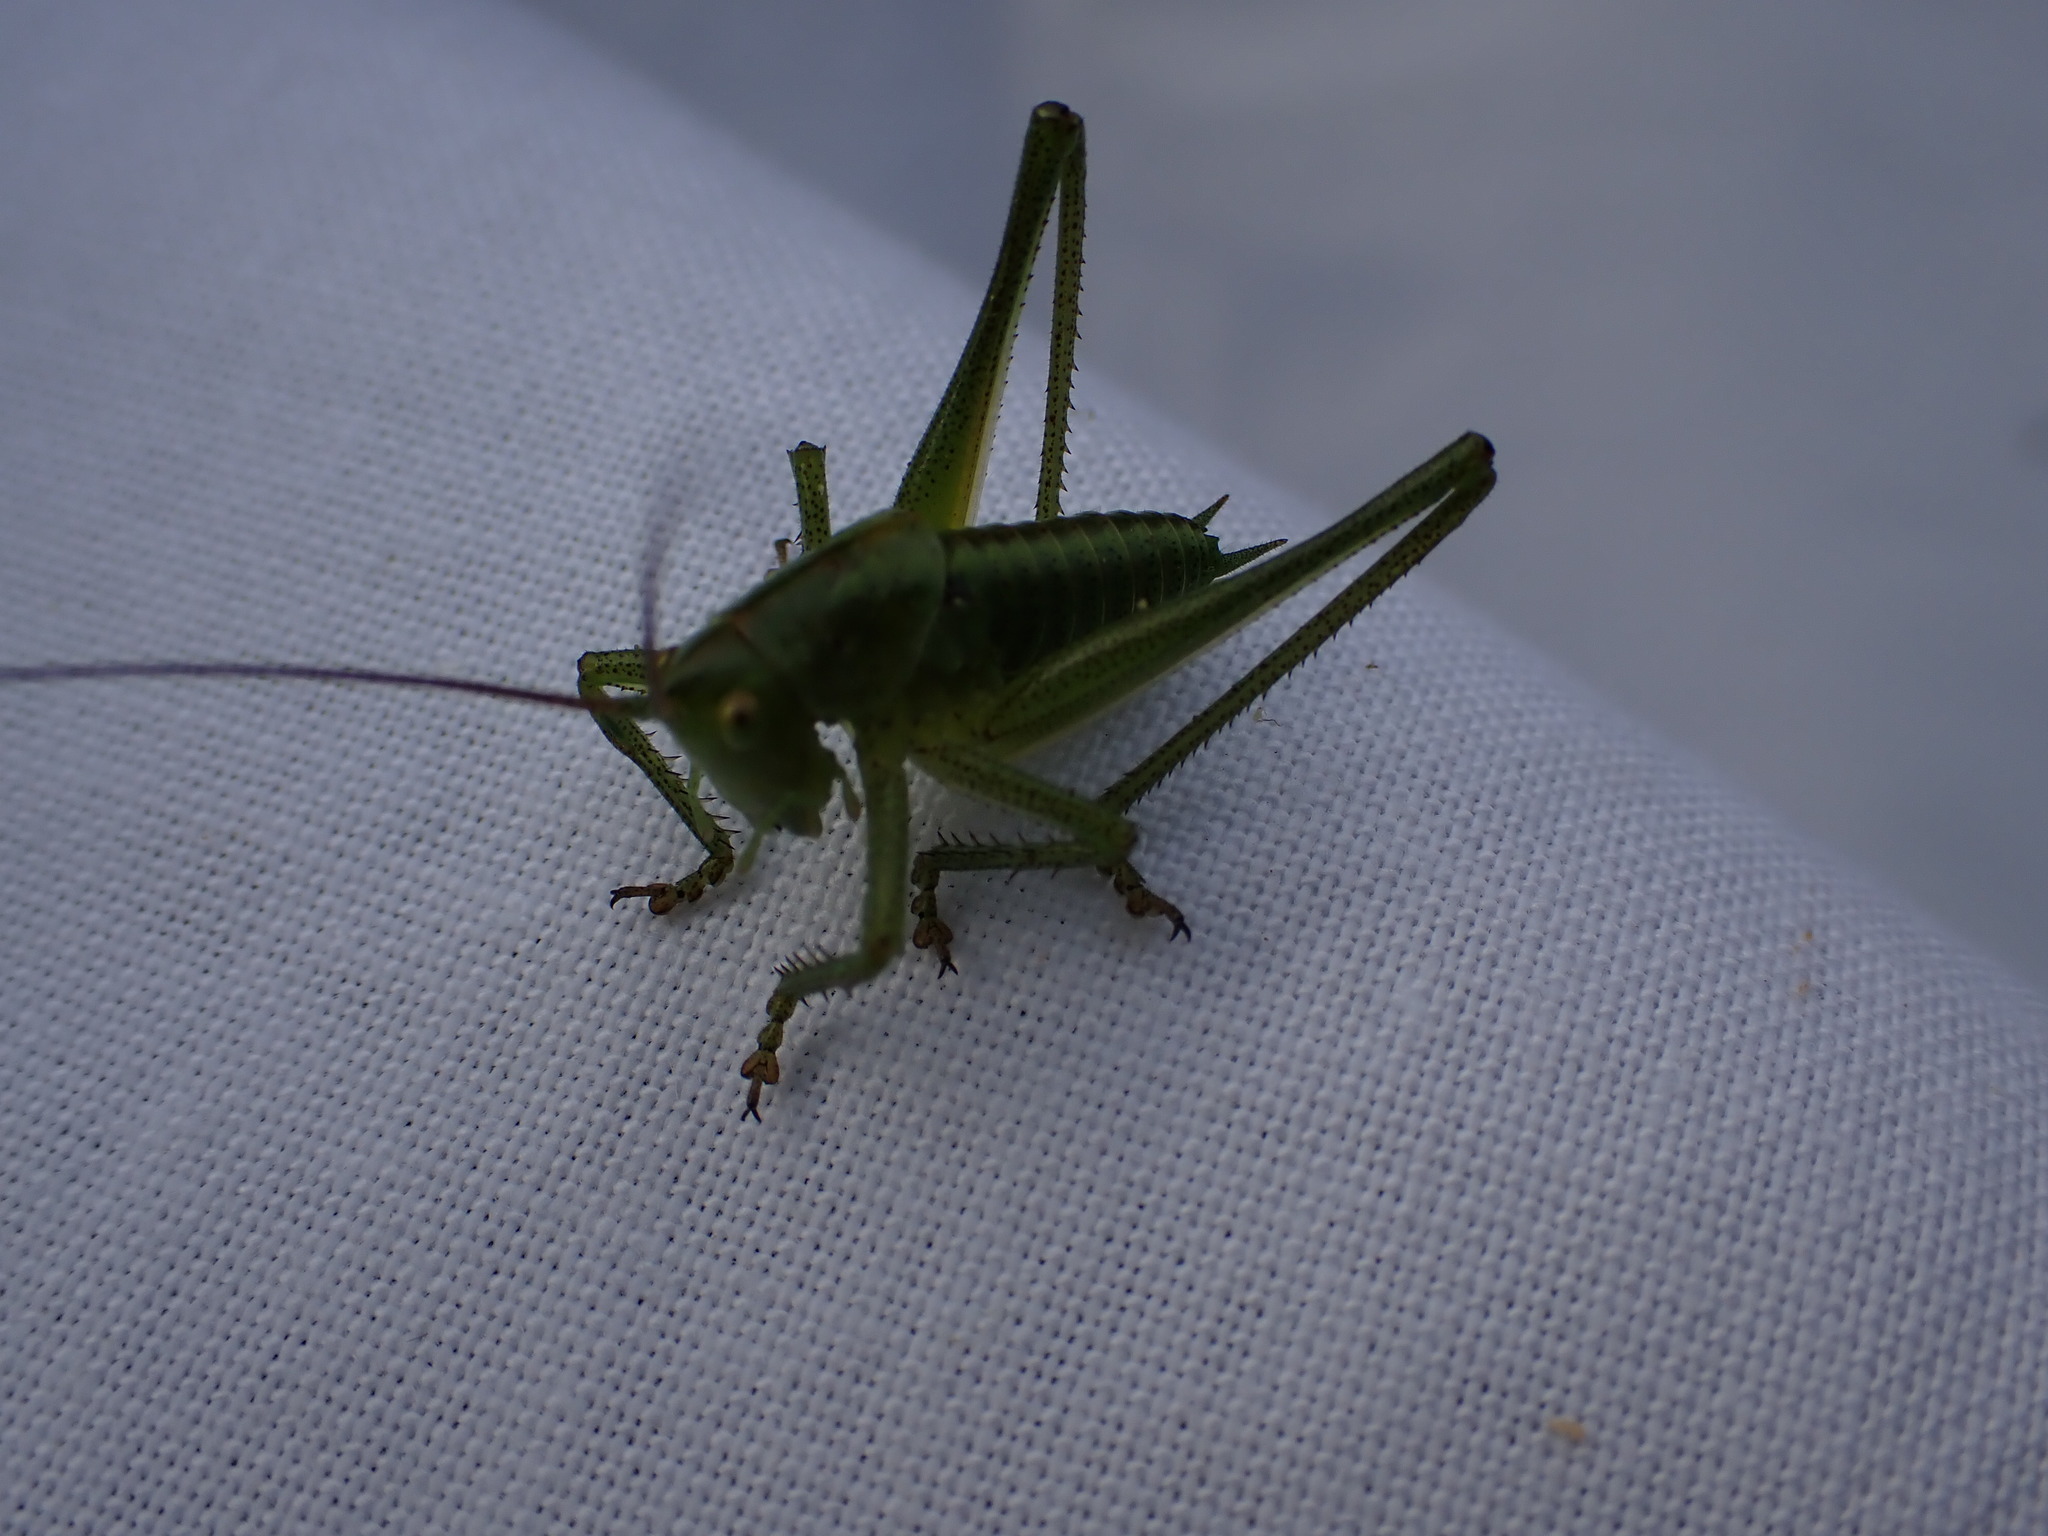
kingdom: Animalia
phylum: Arthropoda
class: Insecta
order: Orthoptera
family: Tettigoniidae
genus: Tettigonia
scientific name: Tettigonia viridissima
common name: Great green bush-cricket
